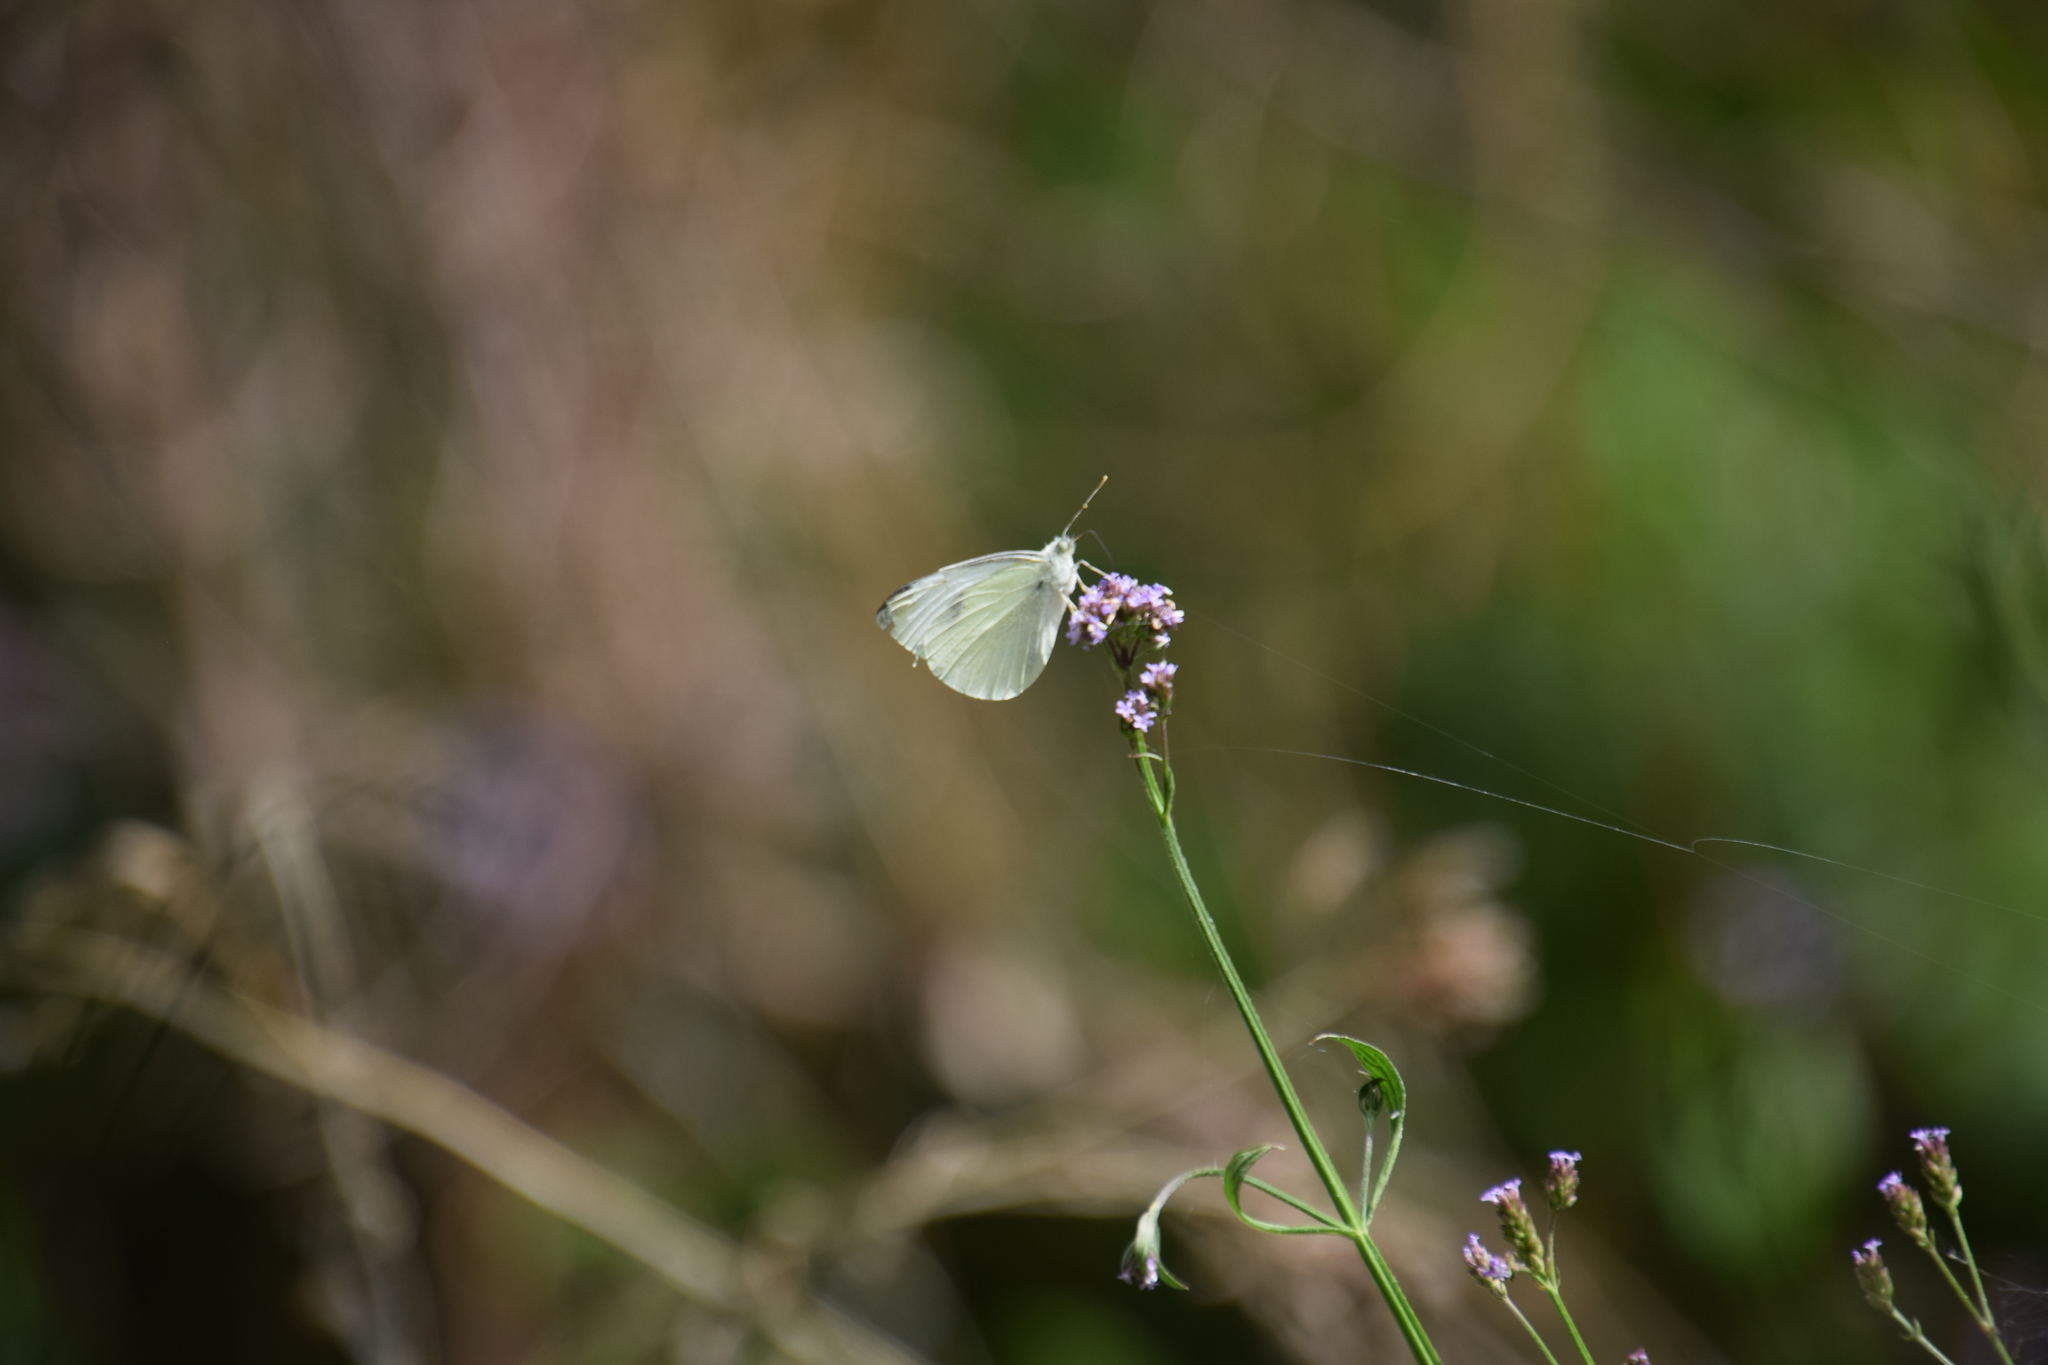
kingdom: Animalia
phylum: Arthropoda
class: Insecta
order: Lepidoptera
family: Pieridae
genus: Pieris
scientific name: Pieris rapae
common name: Small white
